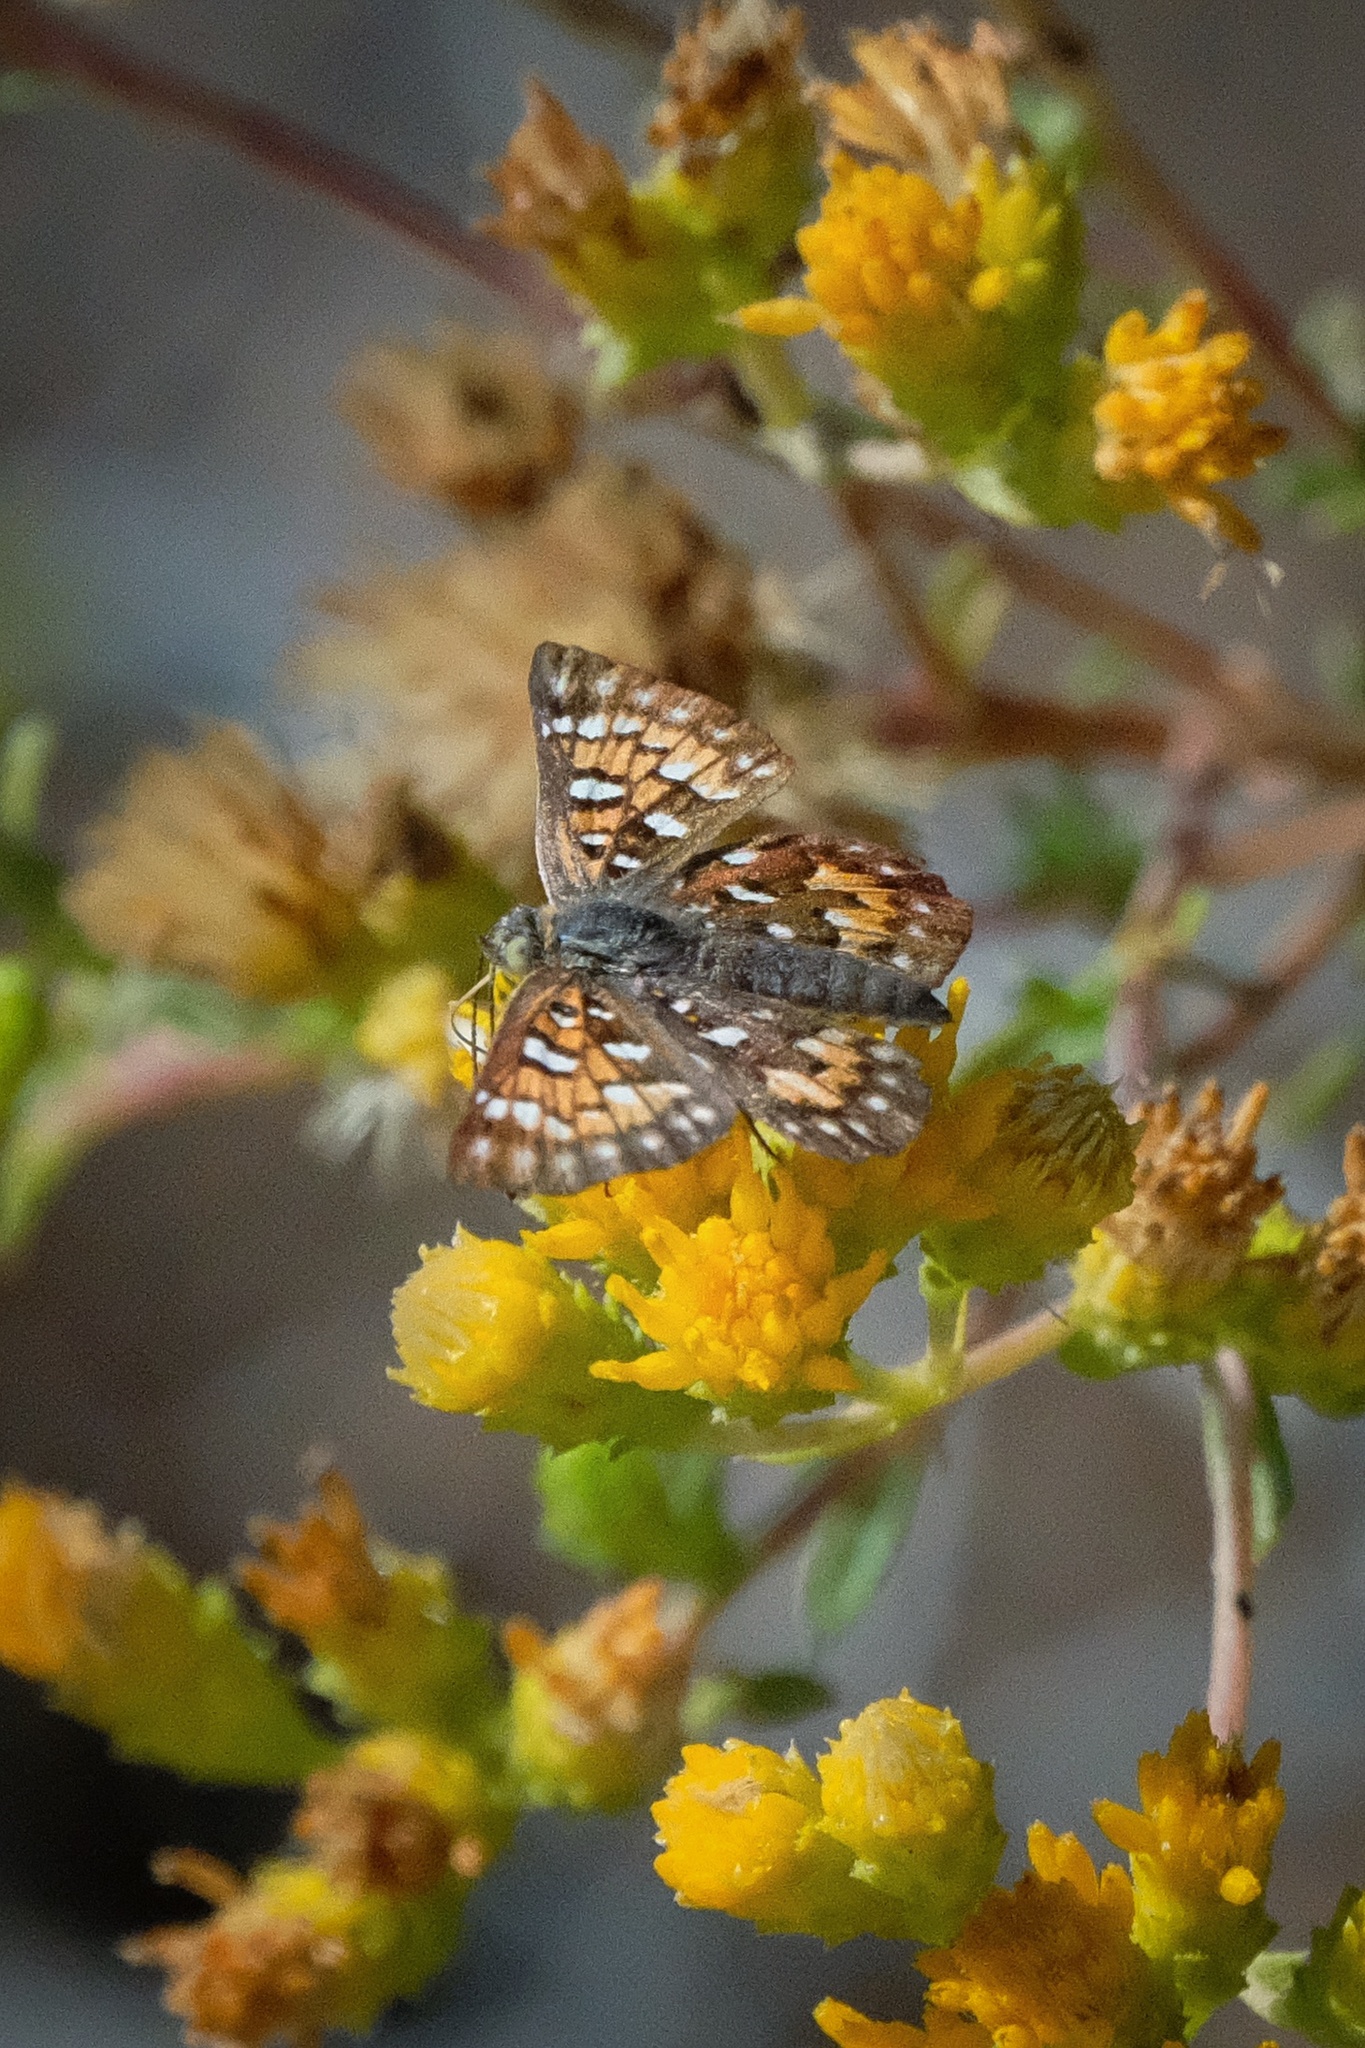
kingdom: Animalia
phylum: Arthropoda
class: Insecta
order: Lepidoptera
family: Riodinidae
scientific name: Riodinidae
